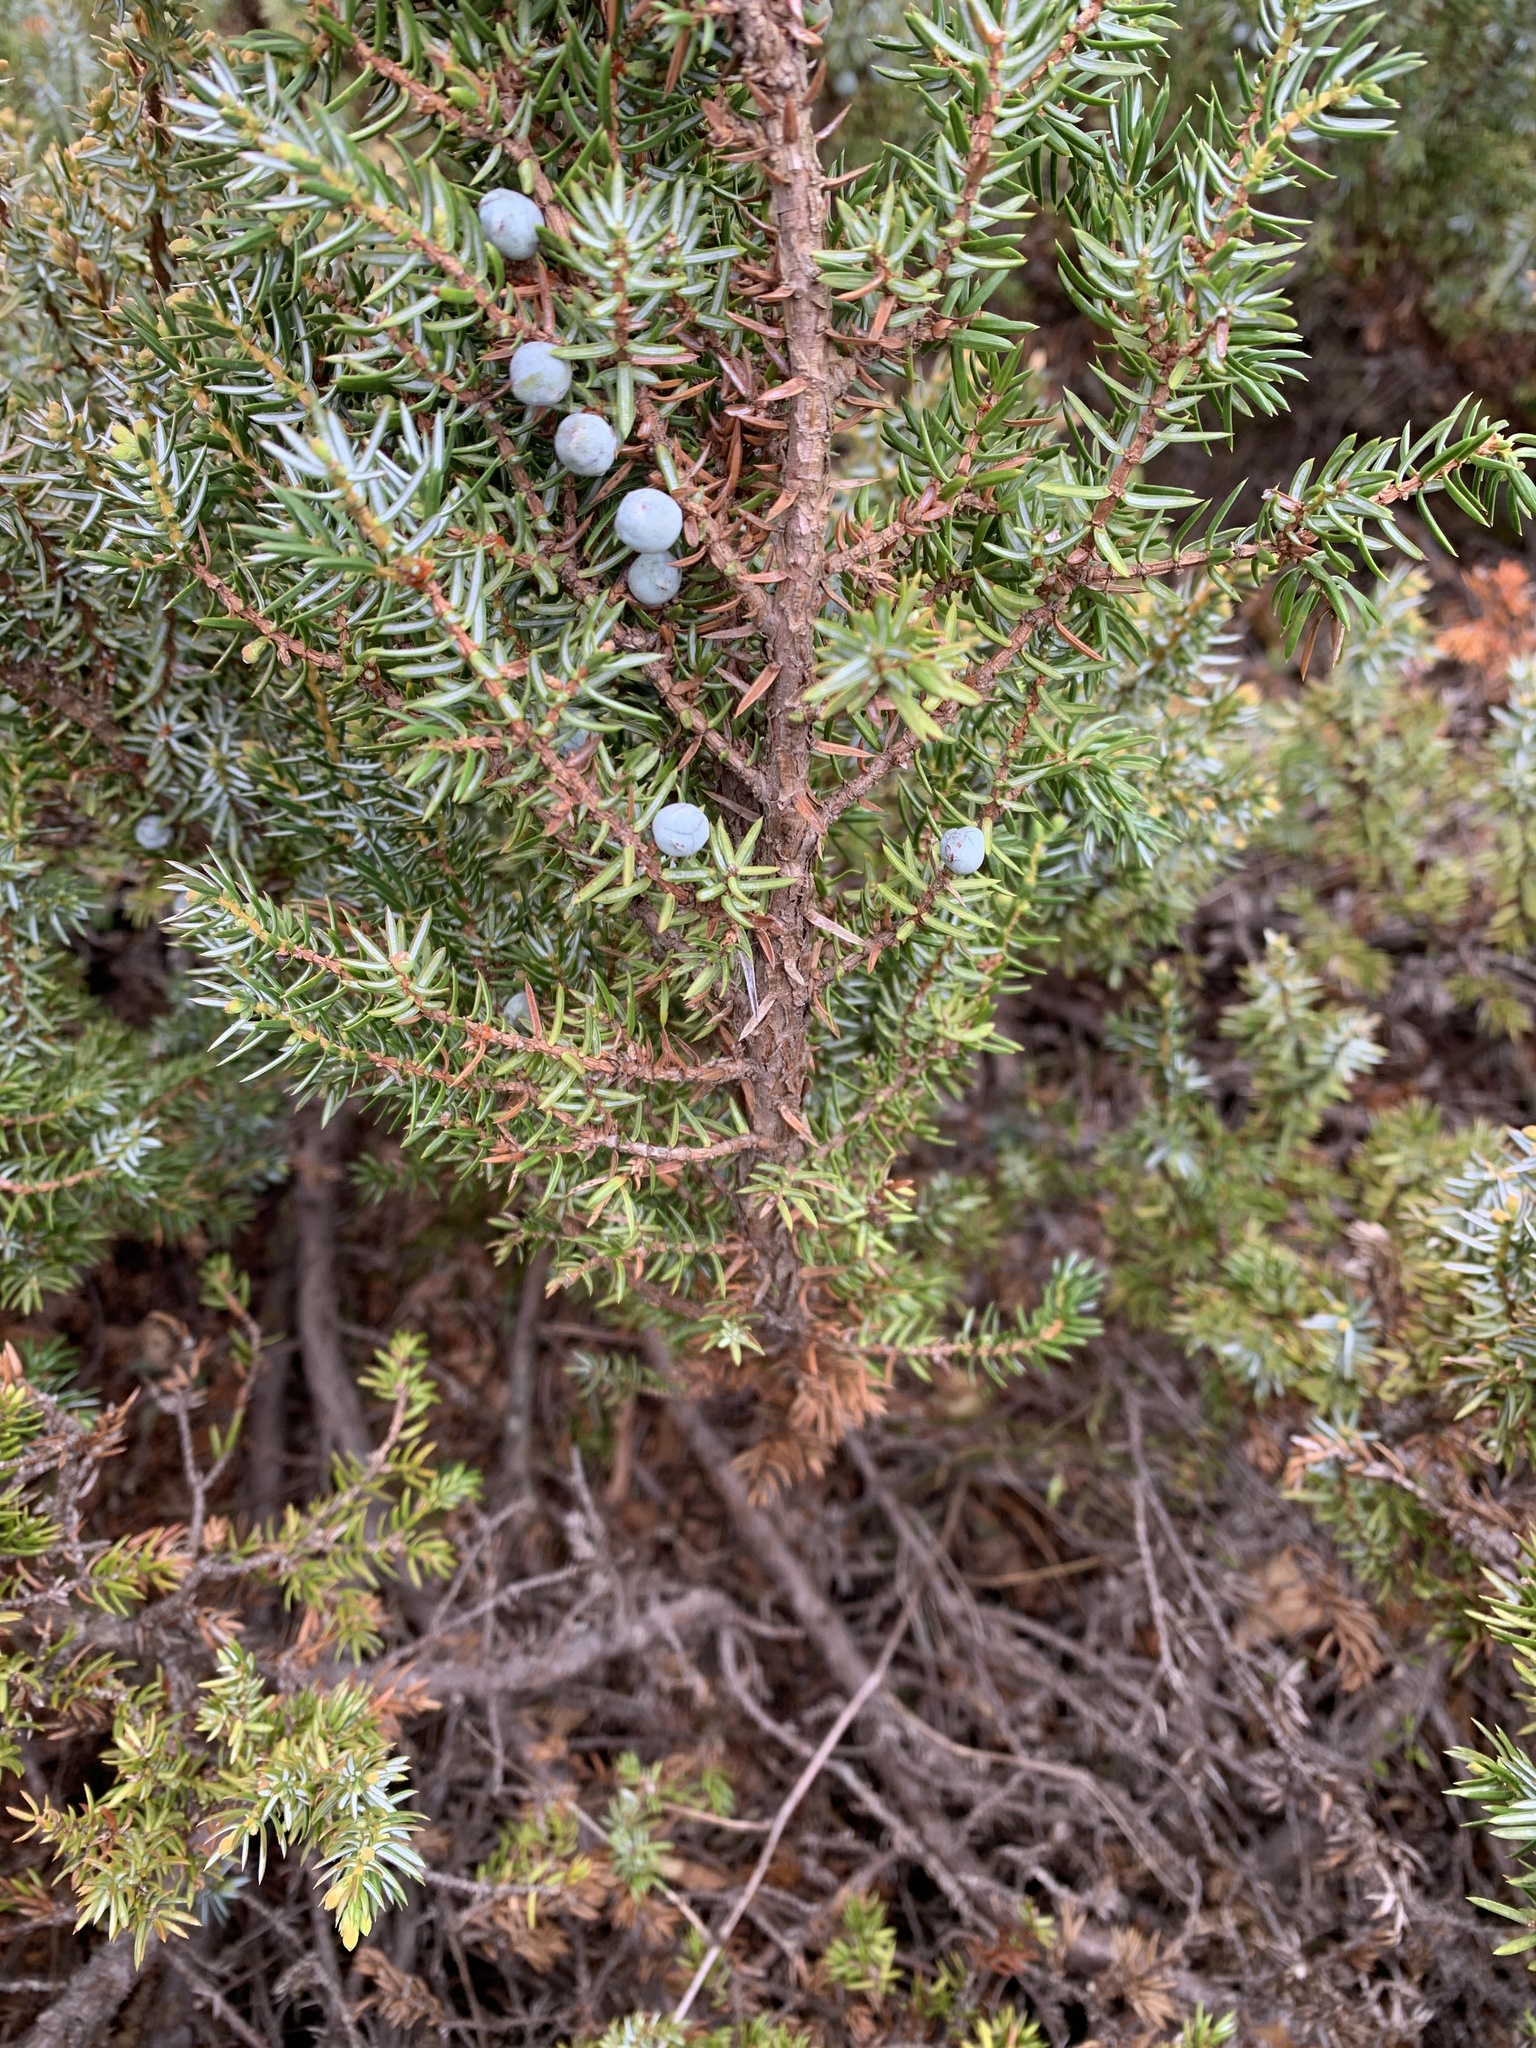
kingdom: Plantae
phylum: Tracheophyta
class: Pinopsida
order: Pinales
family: Cupressaceae
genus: Juniperus
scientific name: Juniperus communis
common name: Common juniper
